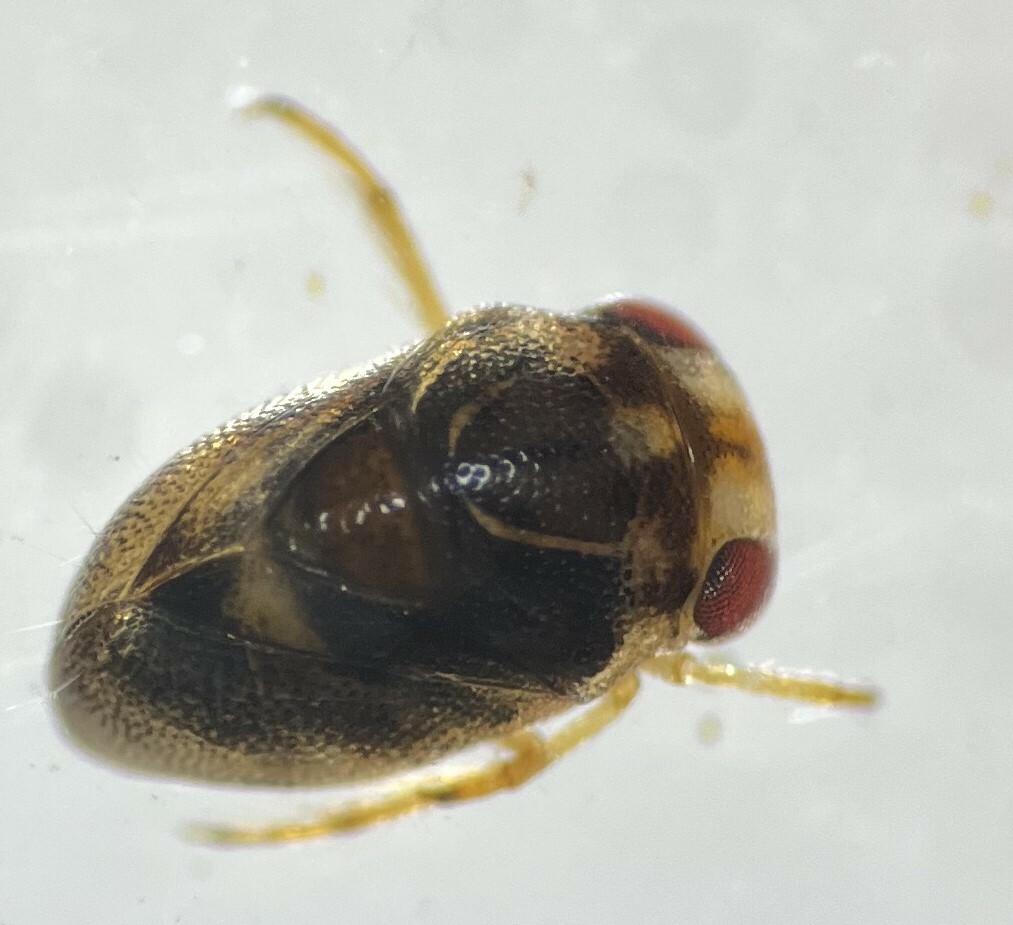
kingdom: Animalia
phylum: Arthropoda
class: Insecta
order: Hemiptera
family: Pleidae
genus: Neoplea
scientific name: Neoplea
